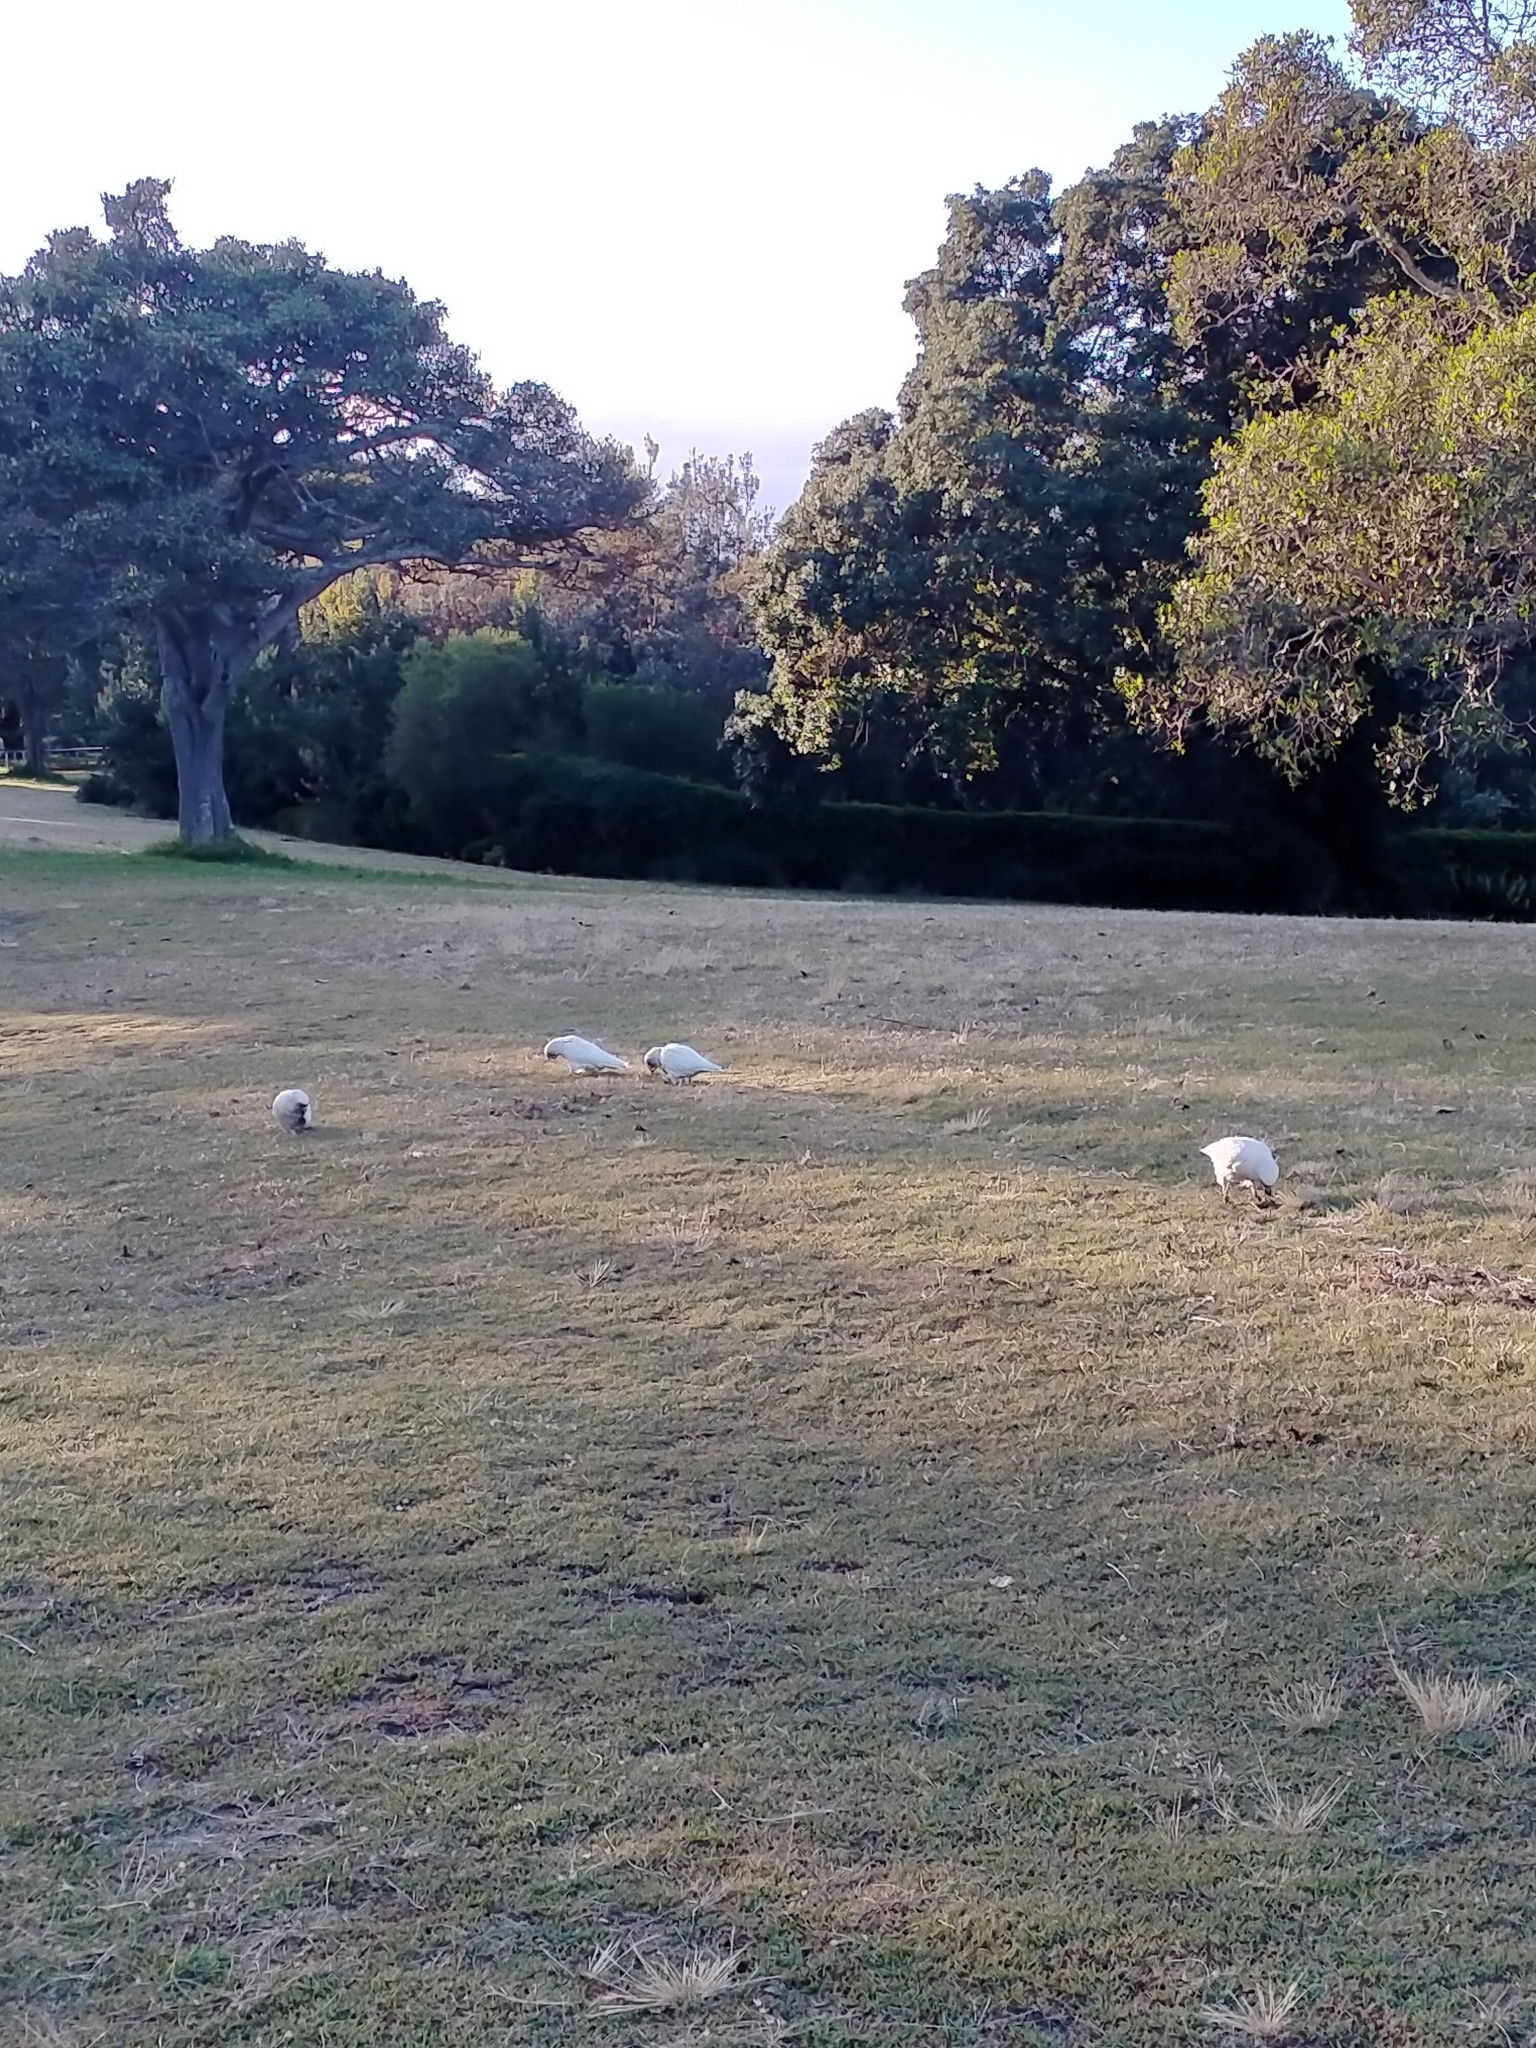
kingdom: Animalia
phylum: Chordata
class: Aves
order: Psittaciformes
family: Psittacidae
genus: Cacatua
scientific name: Cacatua tenuirostris
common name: Long-billed corella
